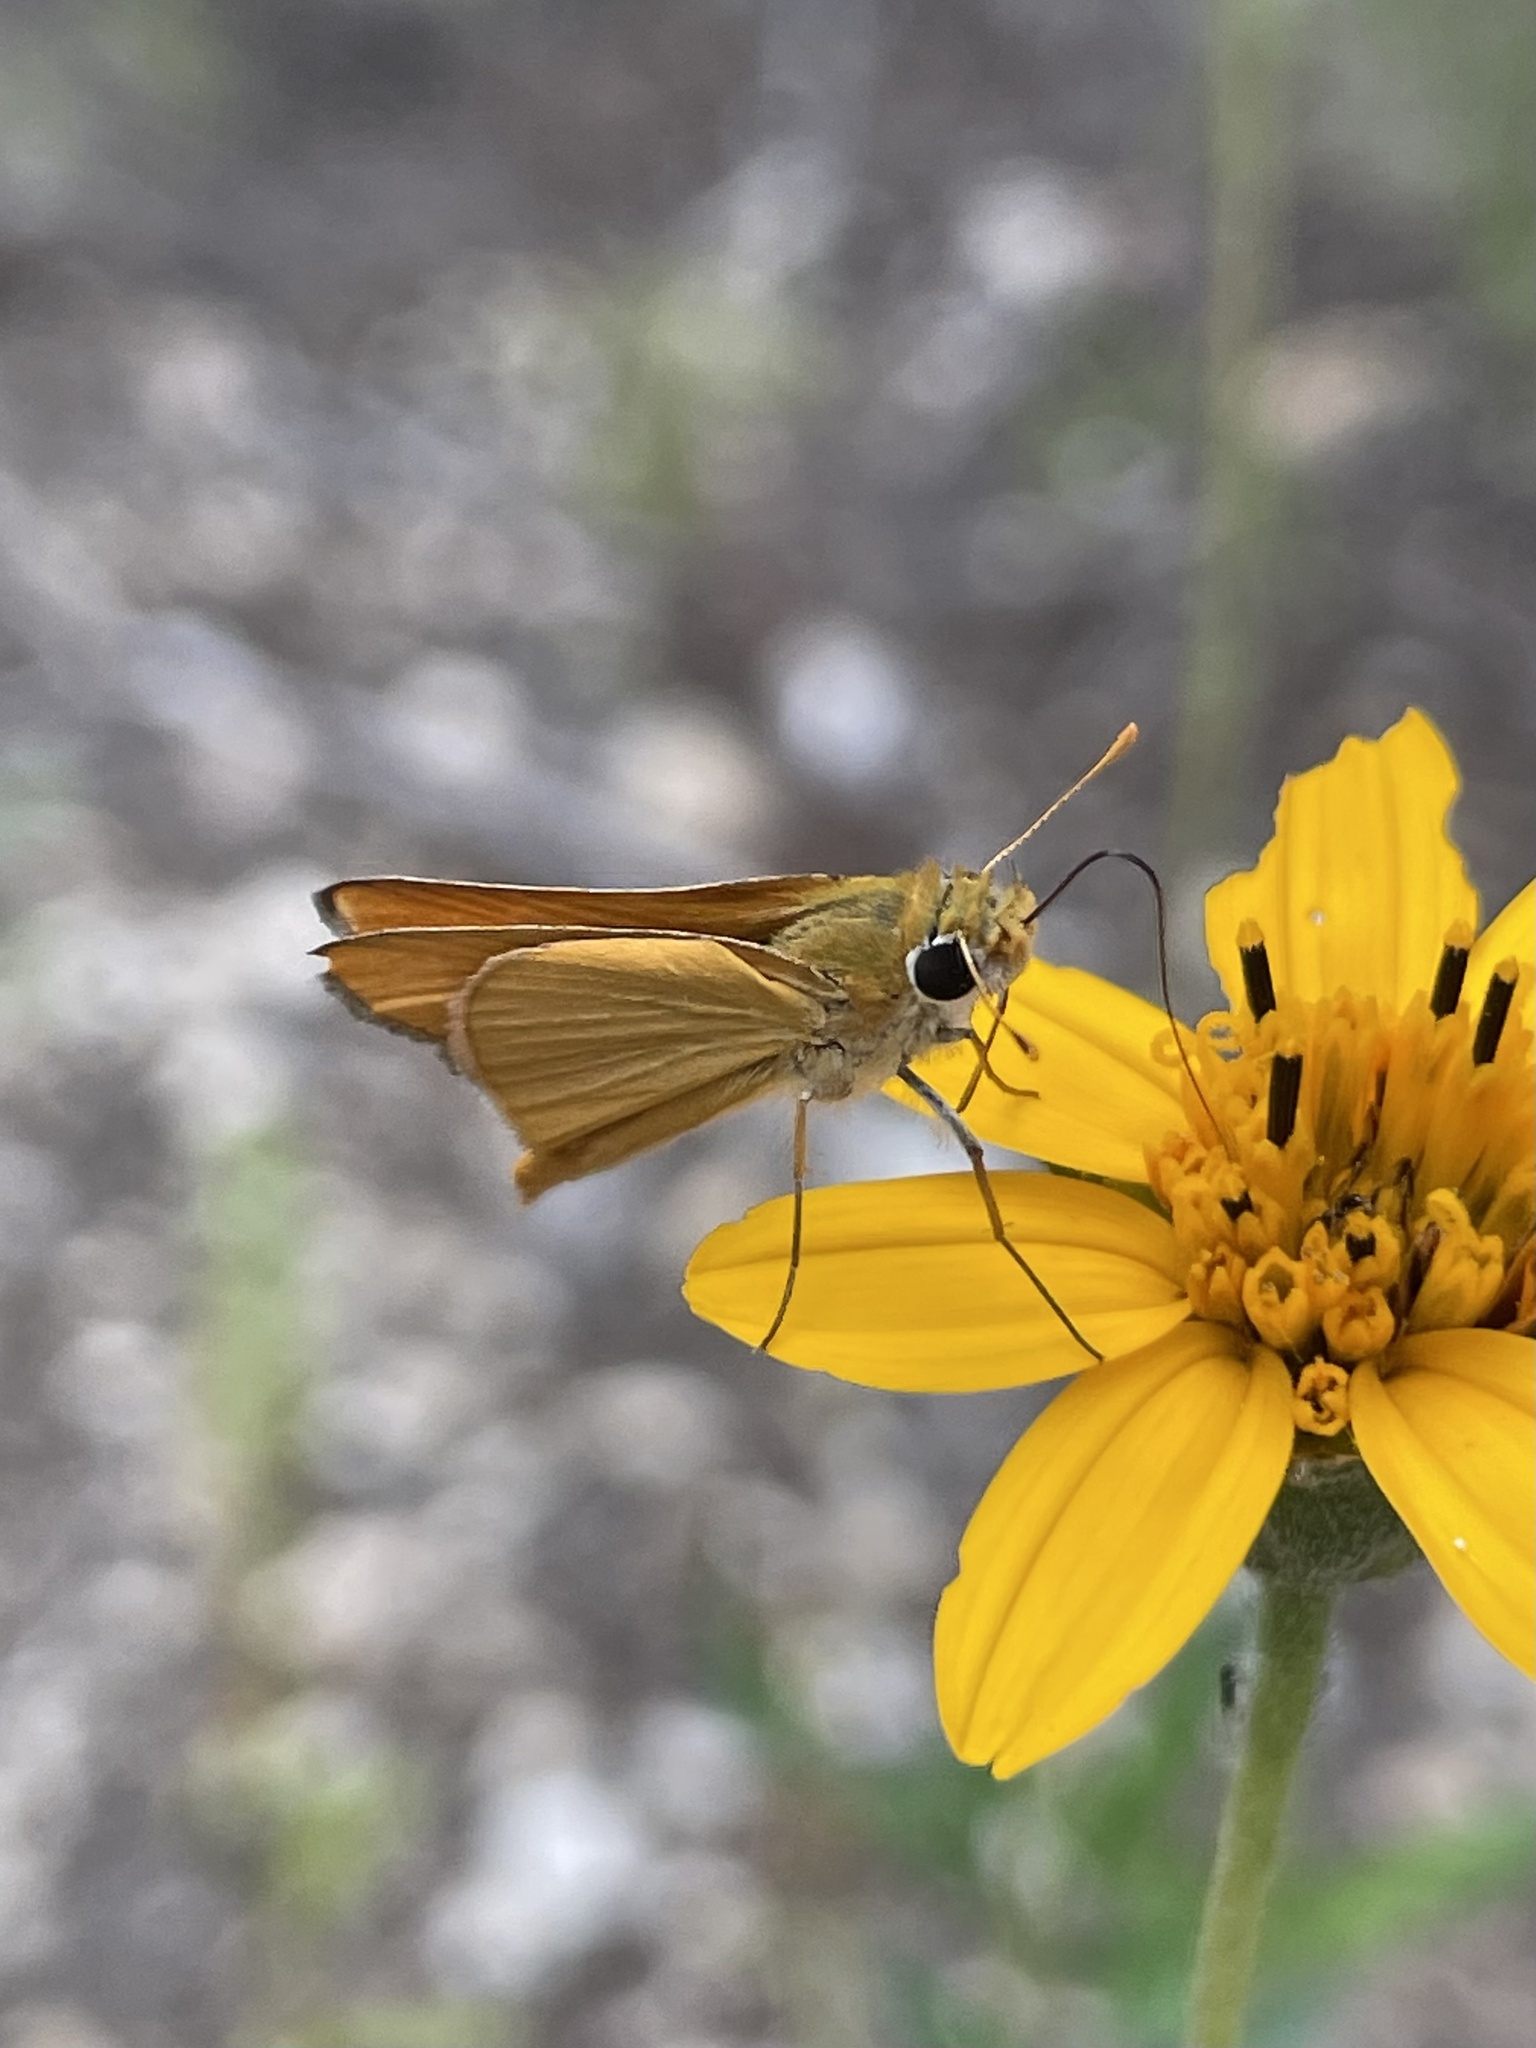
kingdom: Animalia
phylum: Arthropoda
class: Insecta
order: Lepidoptera
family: Hesperiidae
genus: Copaeodes
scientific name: Copaeodes aurantiaca
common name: Orange skipperling
